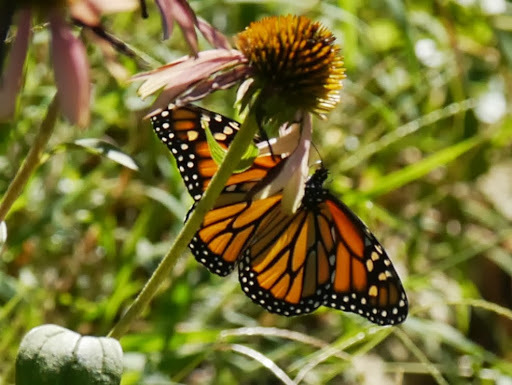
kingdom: Animalia
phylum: Arthropoda
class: Insecta
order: Lepidoptera
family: Nymphalidae
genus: Danaus
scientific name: Danaus plexippus
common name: Monarch
